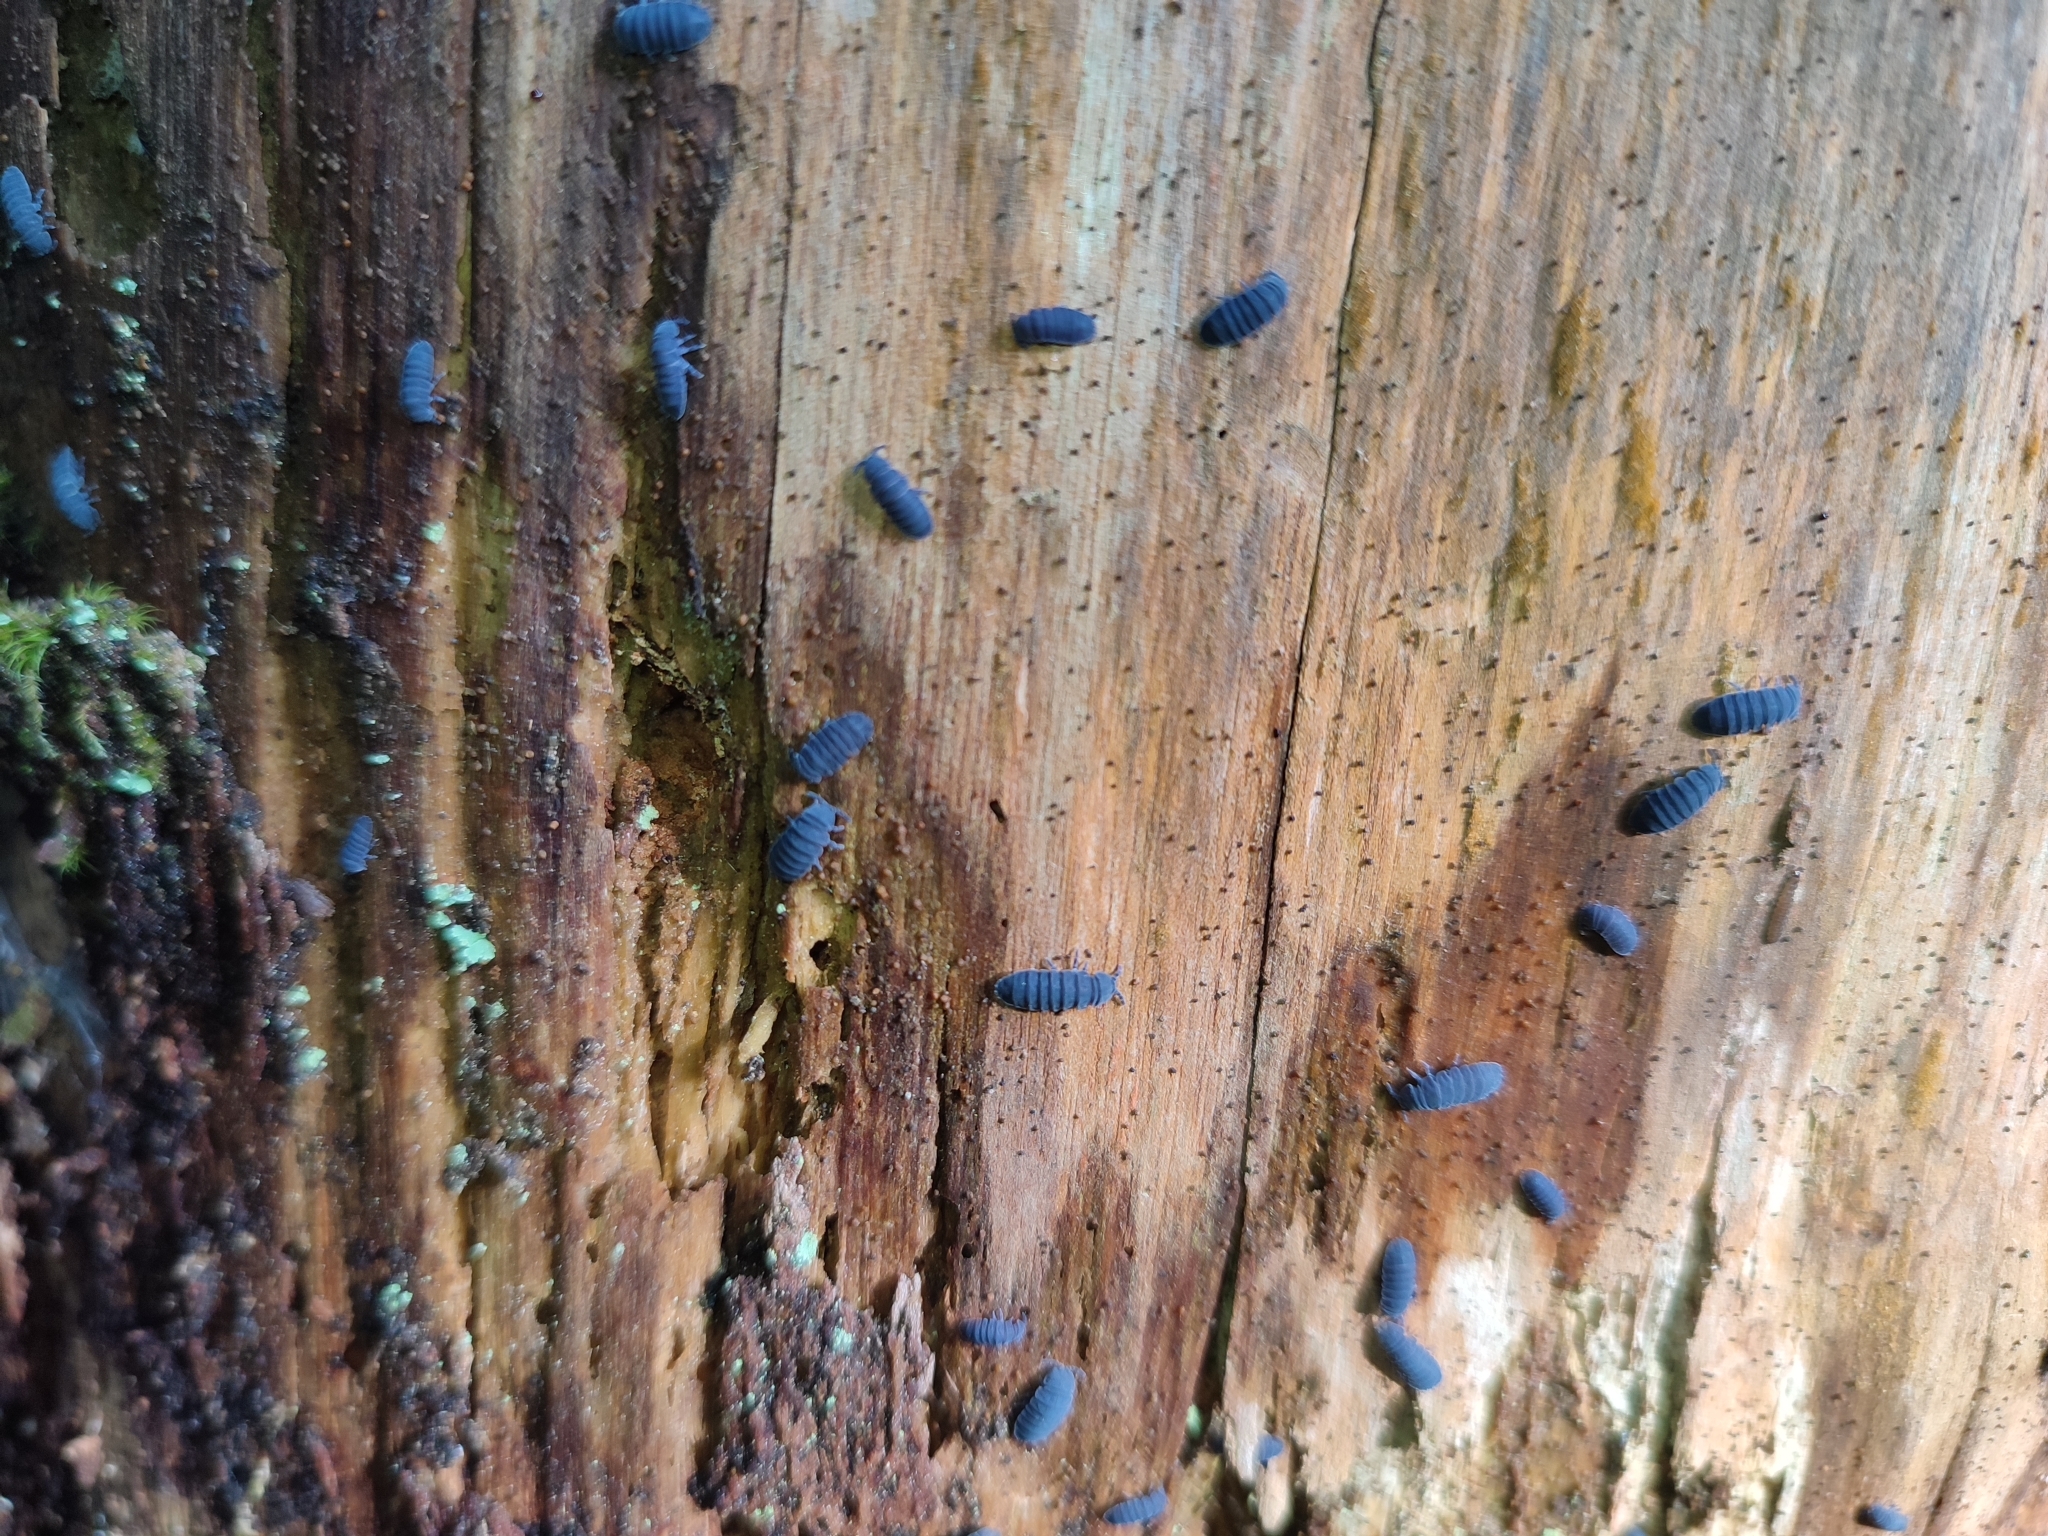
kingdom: Animalia
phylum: Arthropoda
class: Collembola
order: Poduromorpha
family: Onychiuridae
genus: Tetrodontophora
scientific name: Tetrodontophora bielanensis
